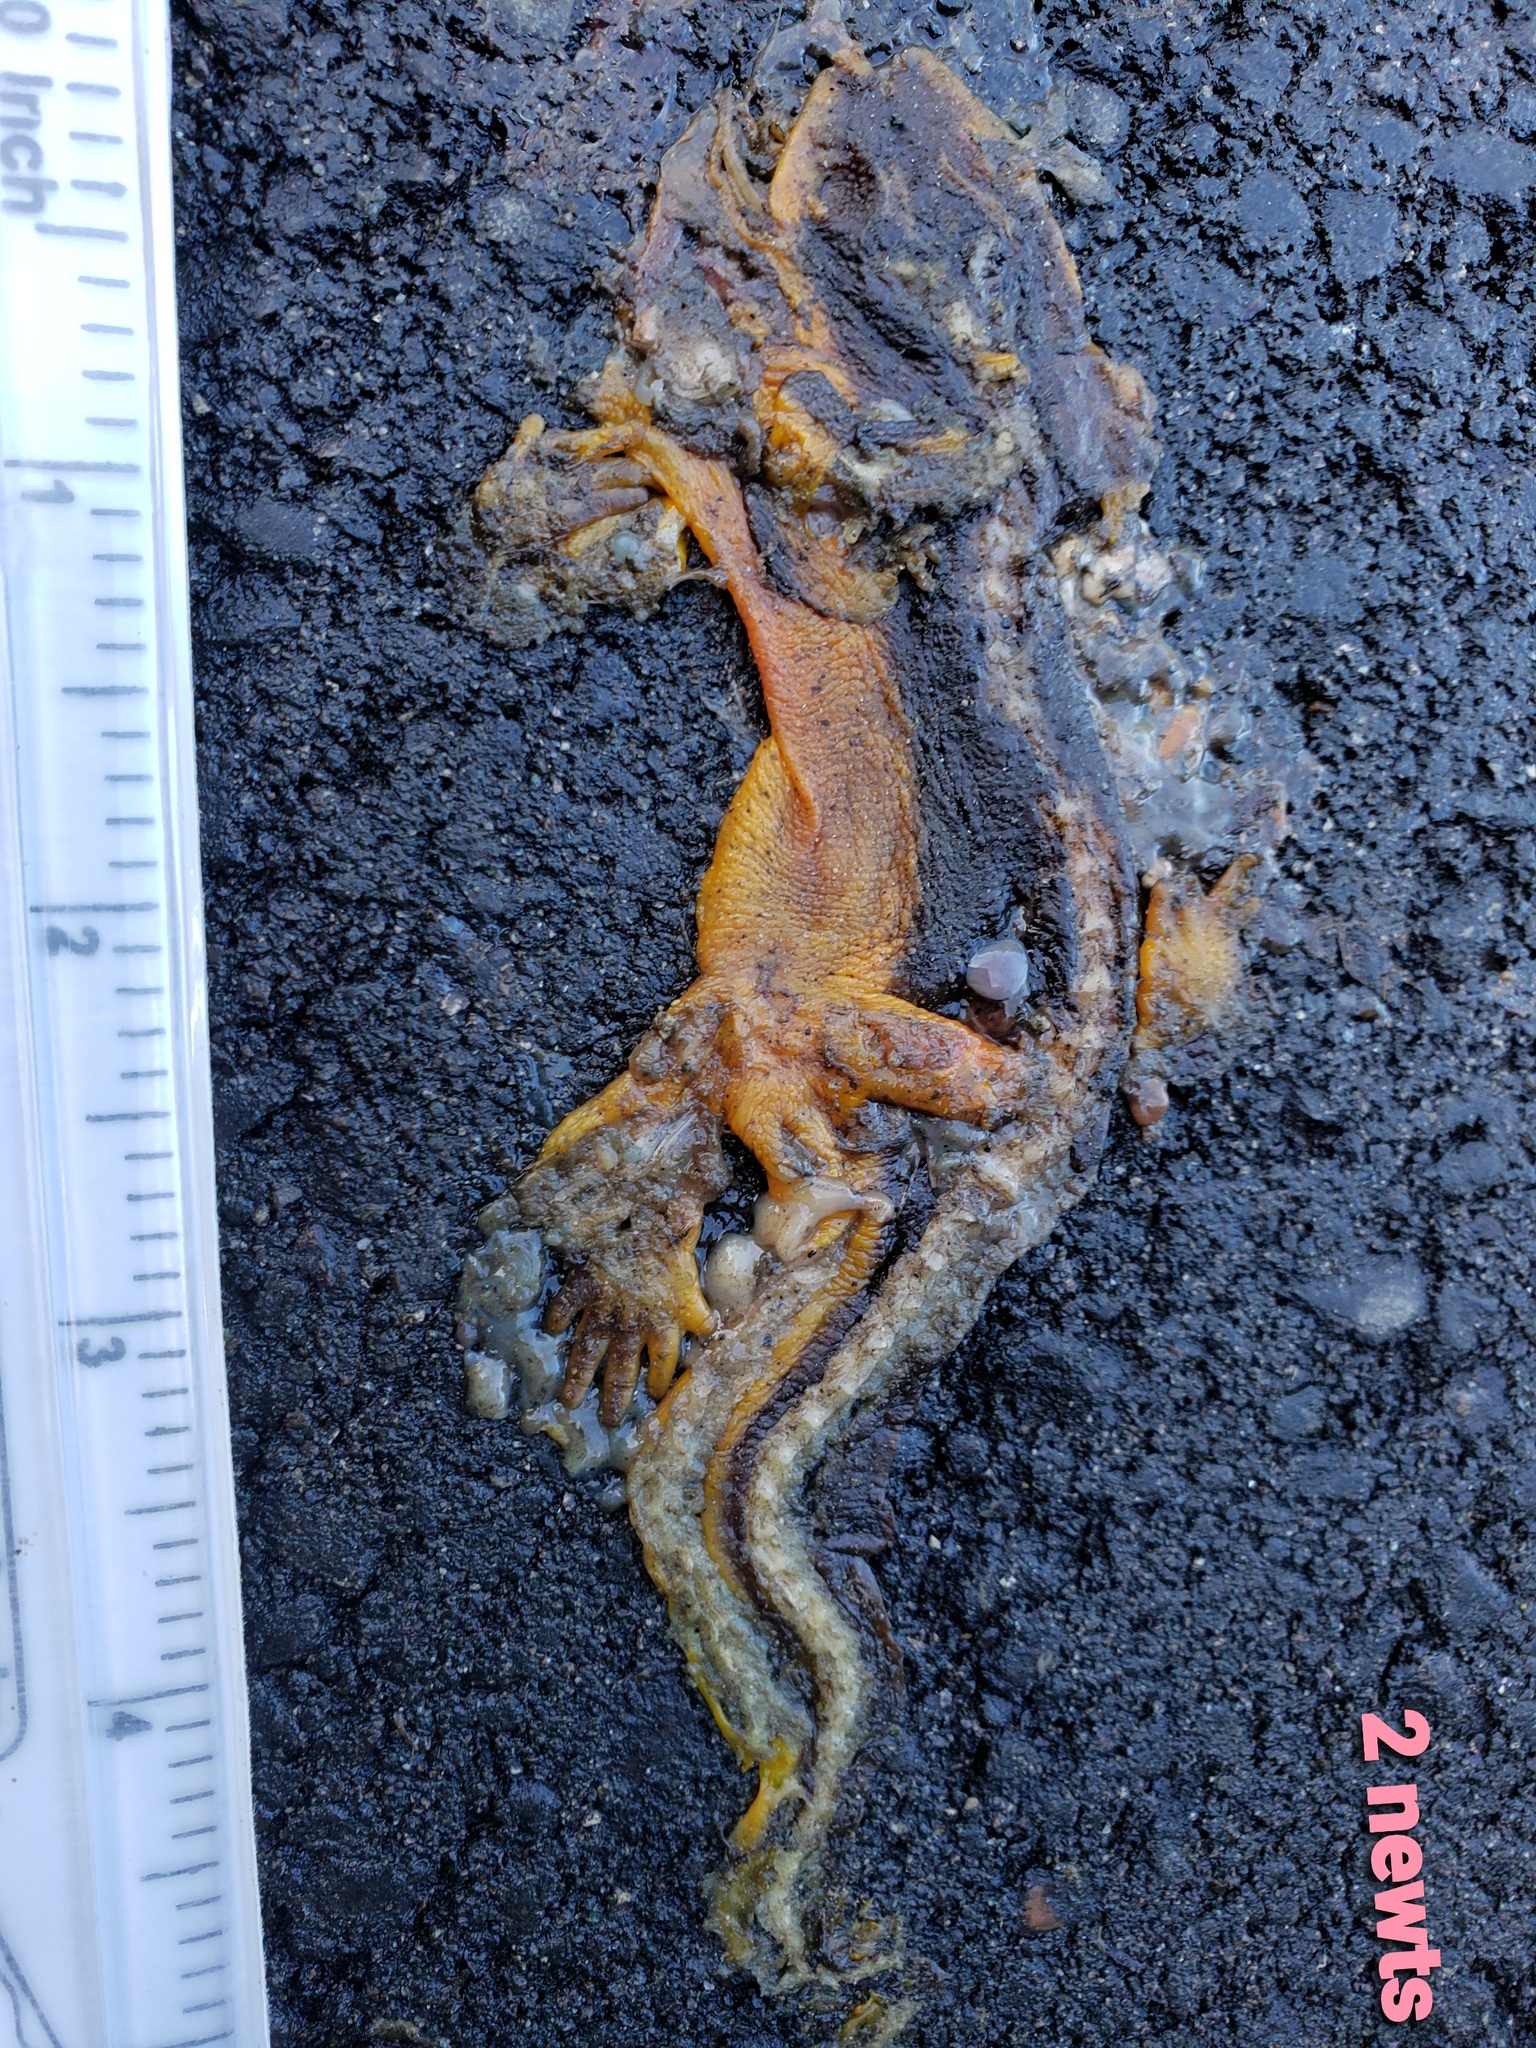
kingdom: Animalia
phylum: Chordata
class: Amphibia
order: Caudata
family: Salamandridae
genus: Taricha
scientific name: Taricha
